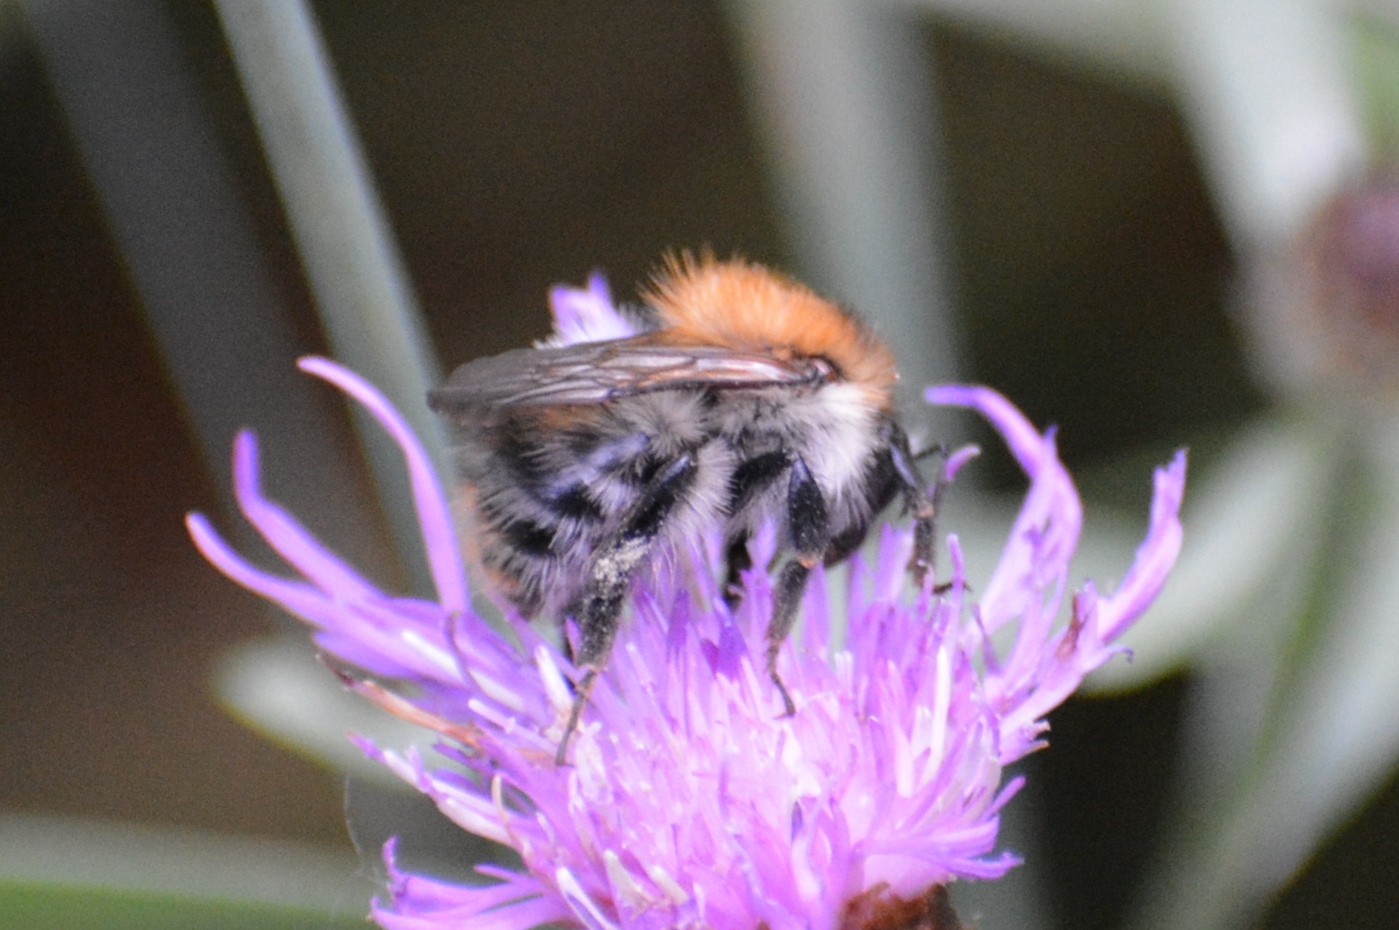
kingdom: Animalia
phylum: Arthropoda
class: Insecta
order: Hymenoptera
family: Apidae
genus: Bombus
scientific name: Bombus pascuorum
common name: Common carder bee
